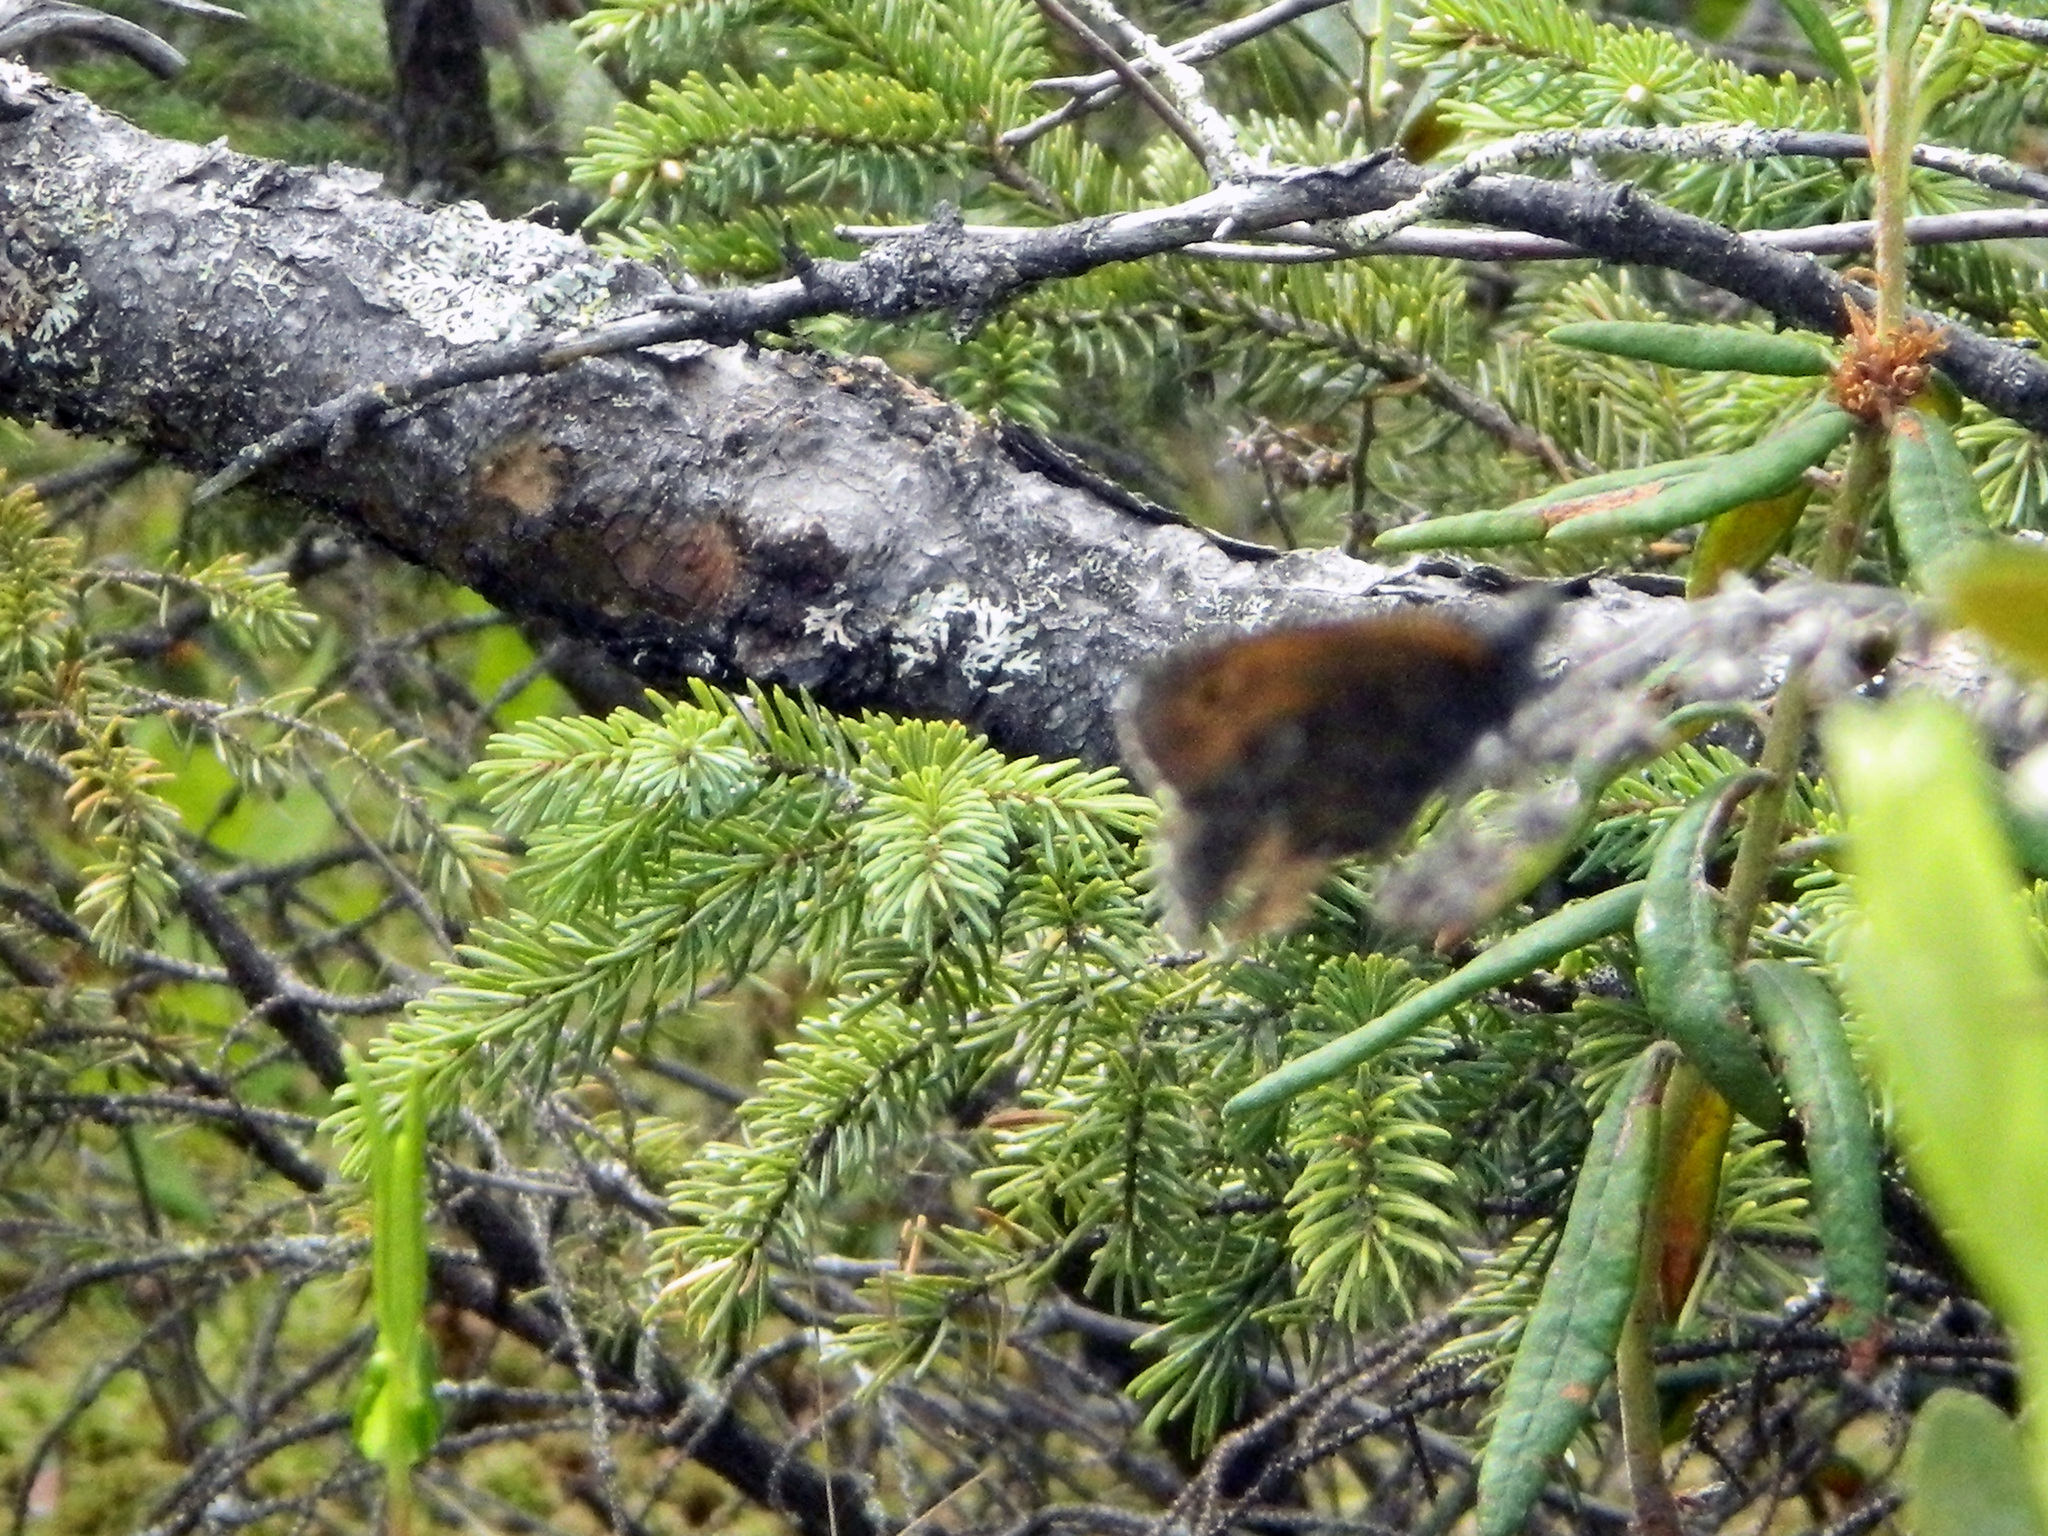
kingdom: Animalia
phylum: Arthropoda
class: Insecta
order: Lepidoptera
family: Nymphalidae
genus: Oeneis
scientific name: Oeneis jutta
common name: Baltic grayling
